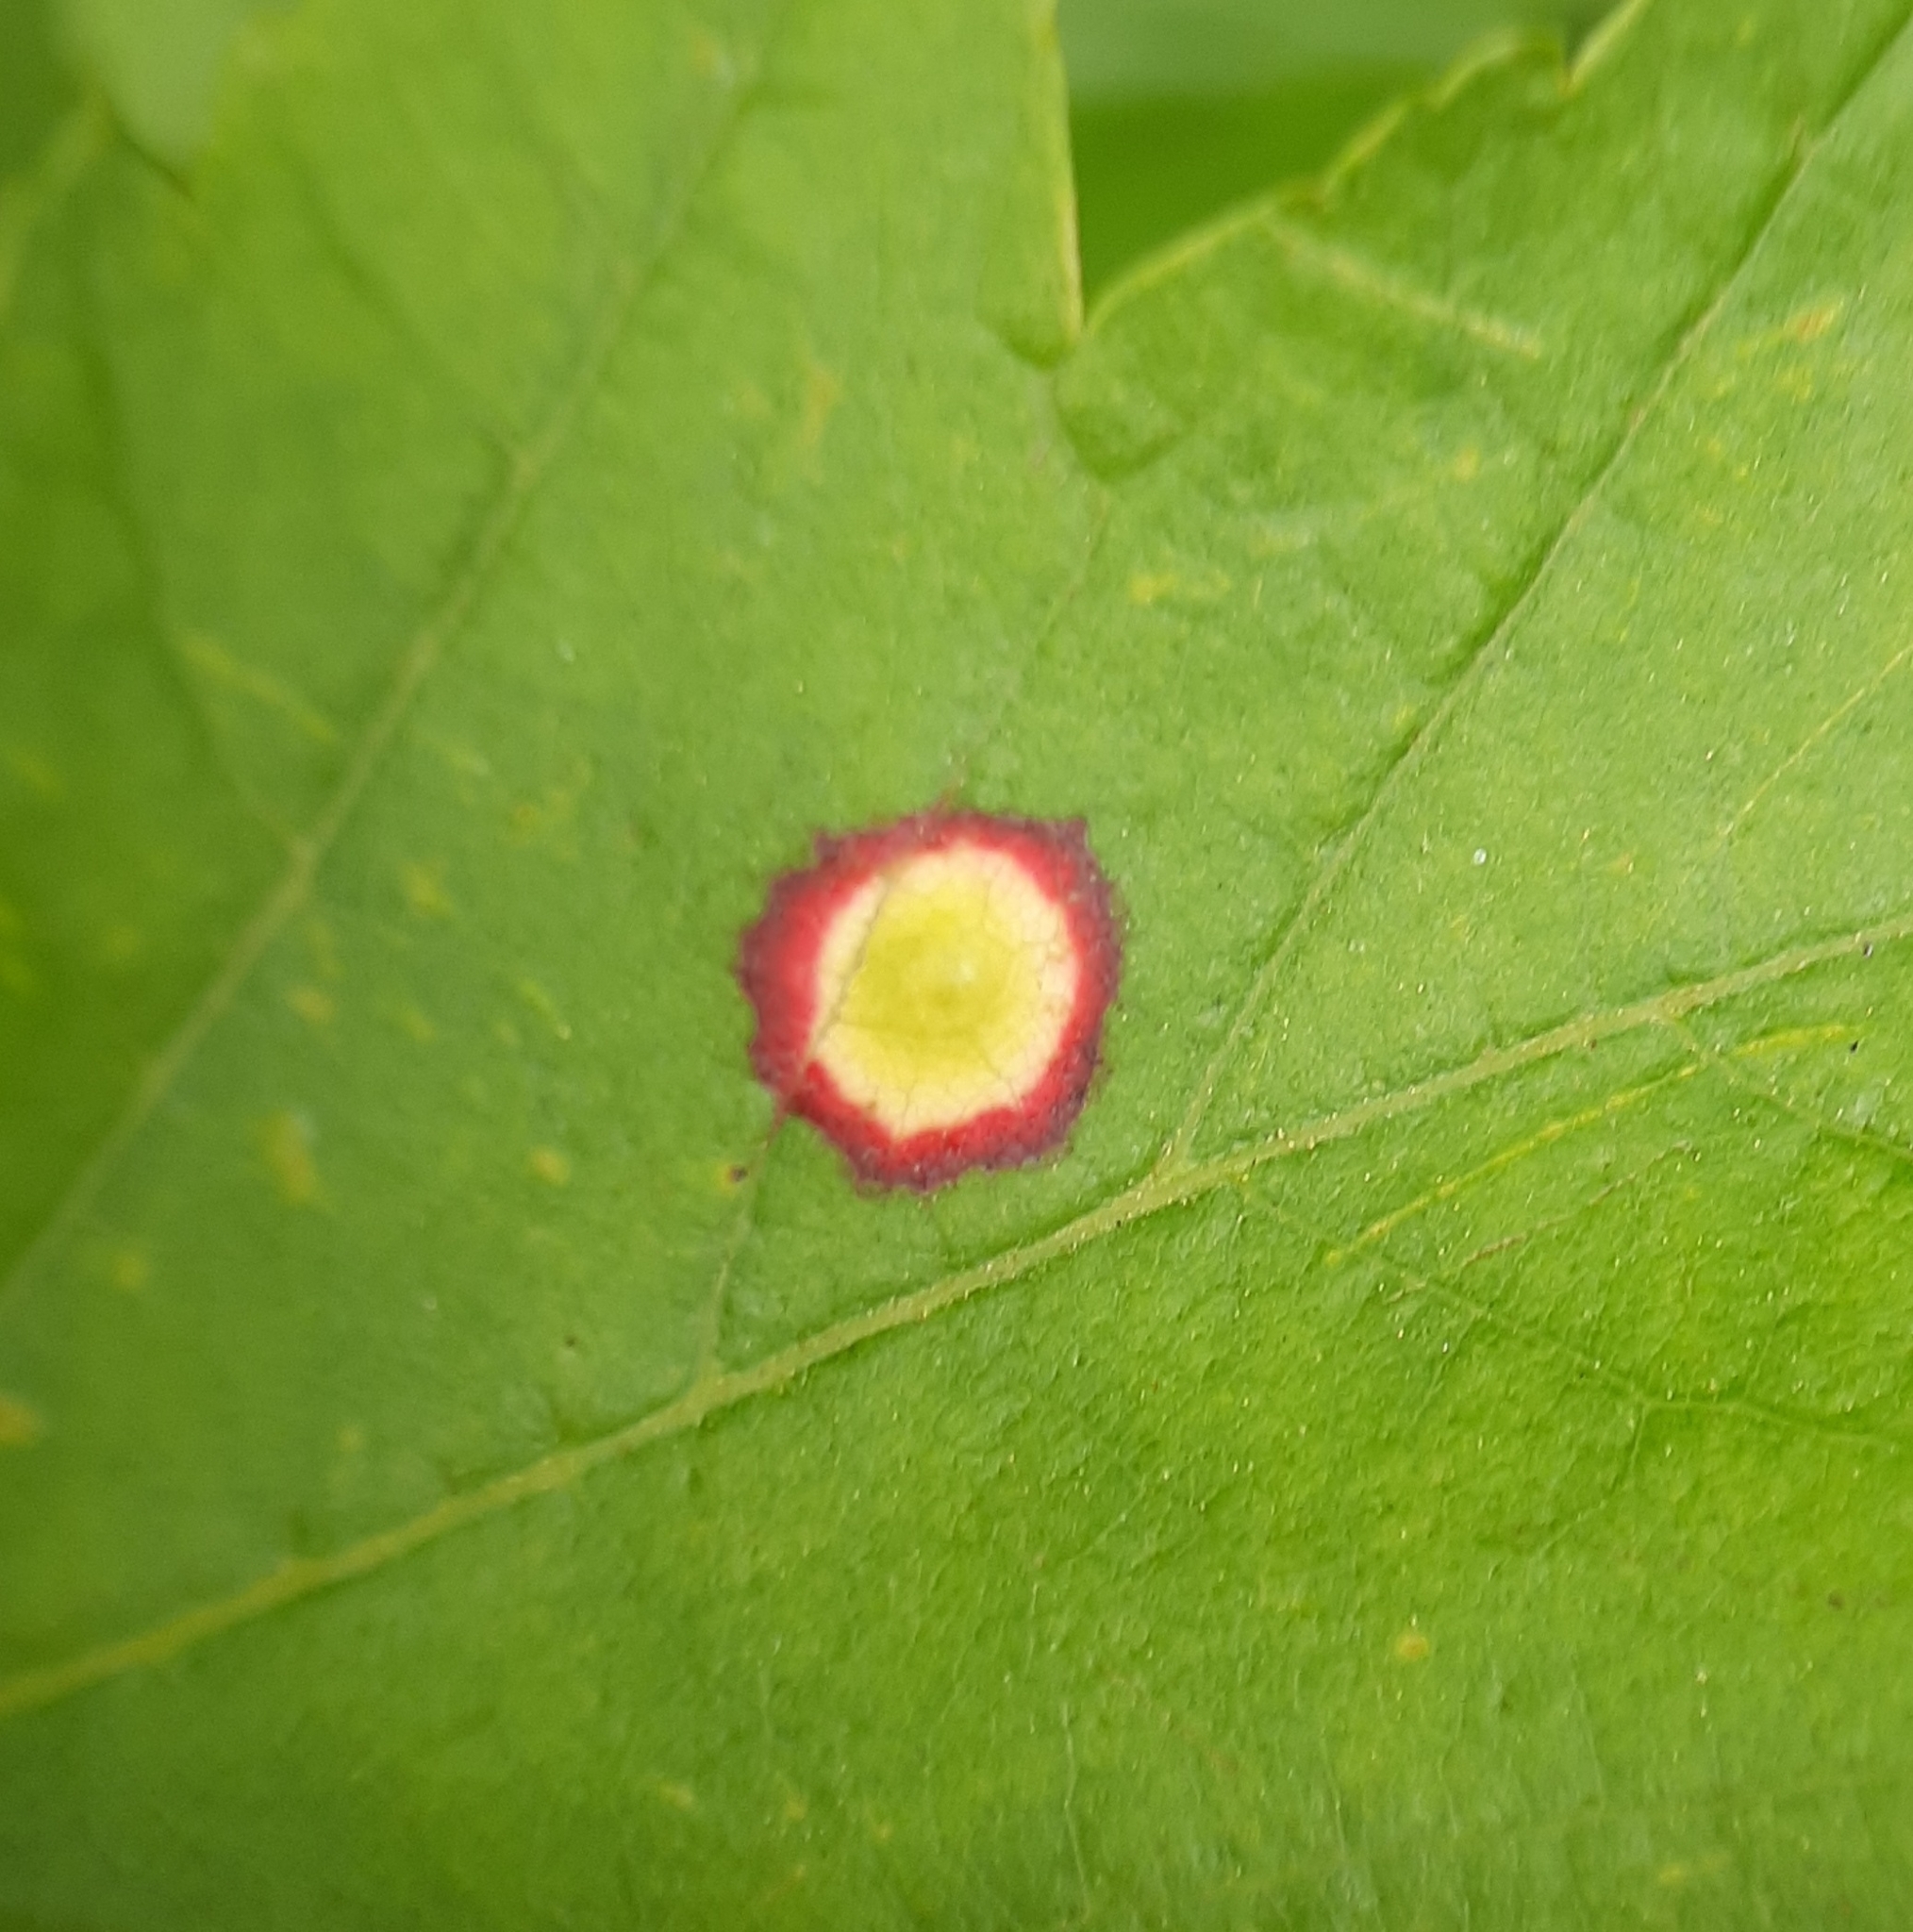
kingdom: Animalia
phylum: Arthropoda
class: Insecta
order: Diptera
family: Cecidomyiidae
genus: Acericecis
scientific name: Acericecis ocellaris
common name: Ocellate gall midge
